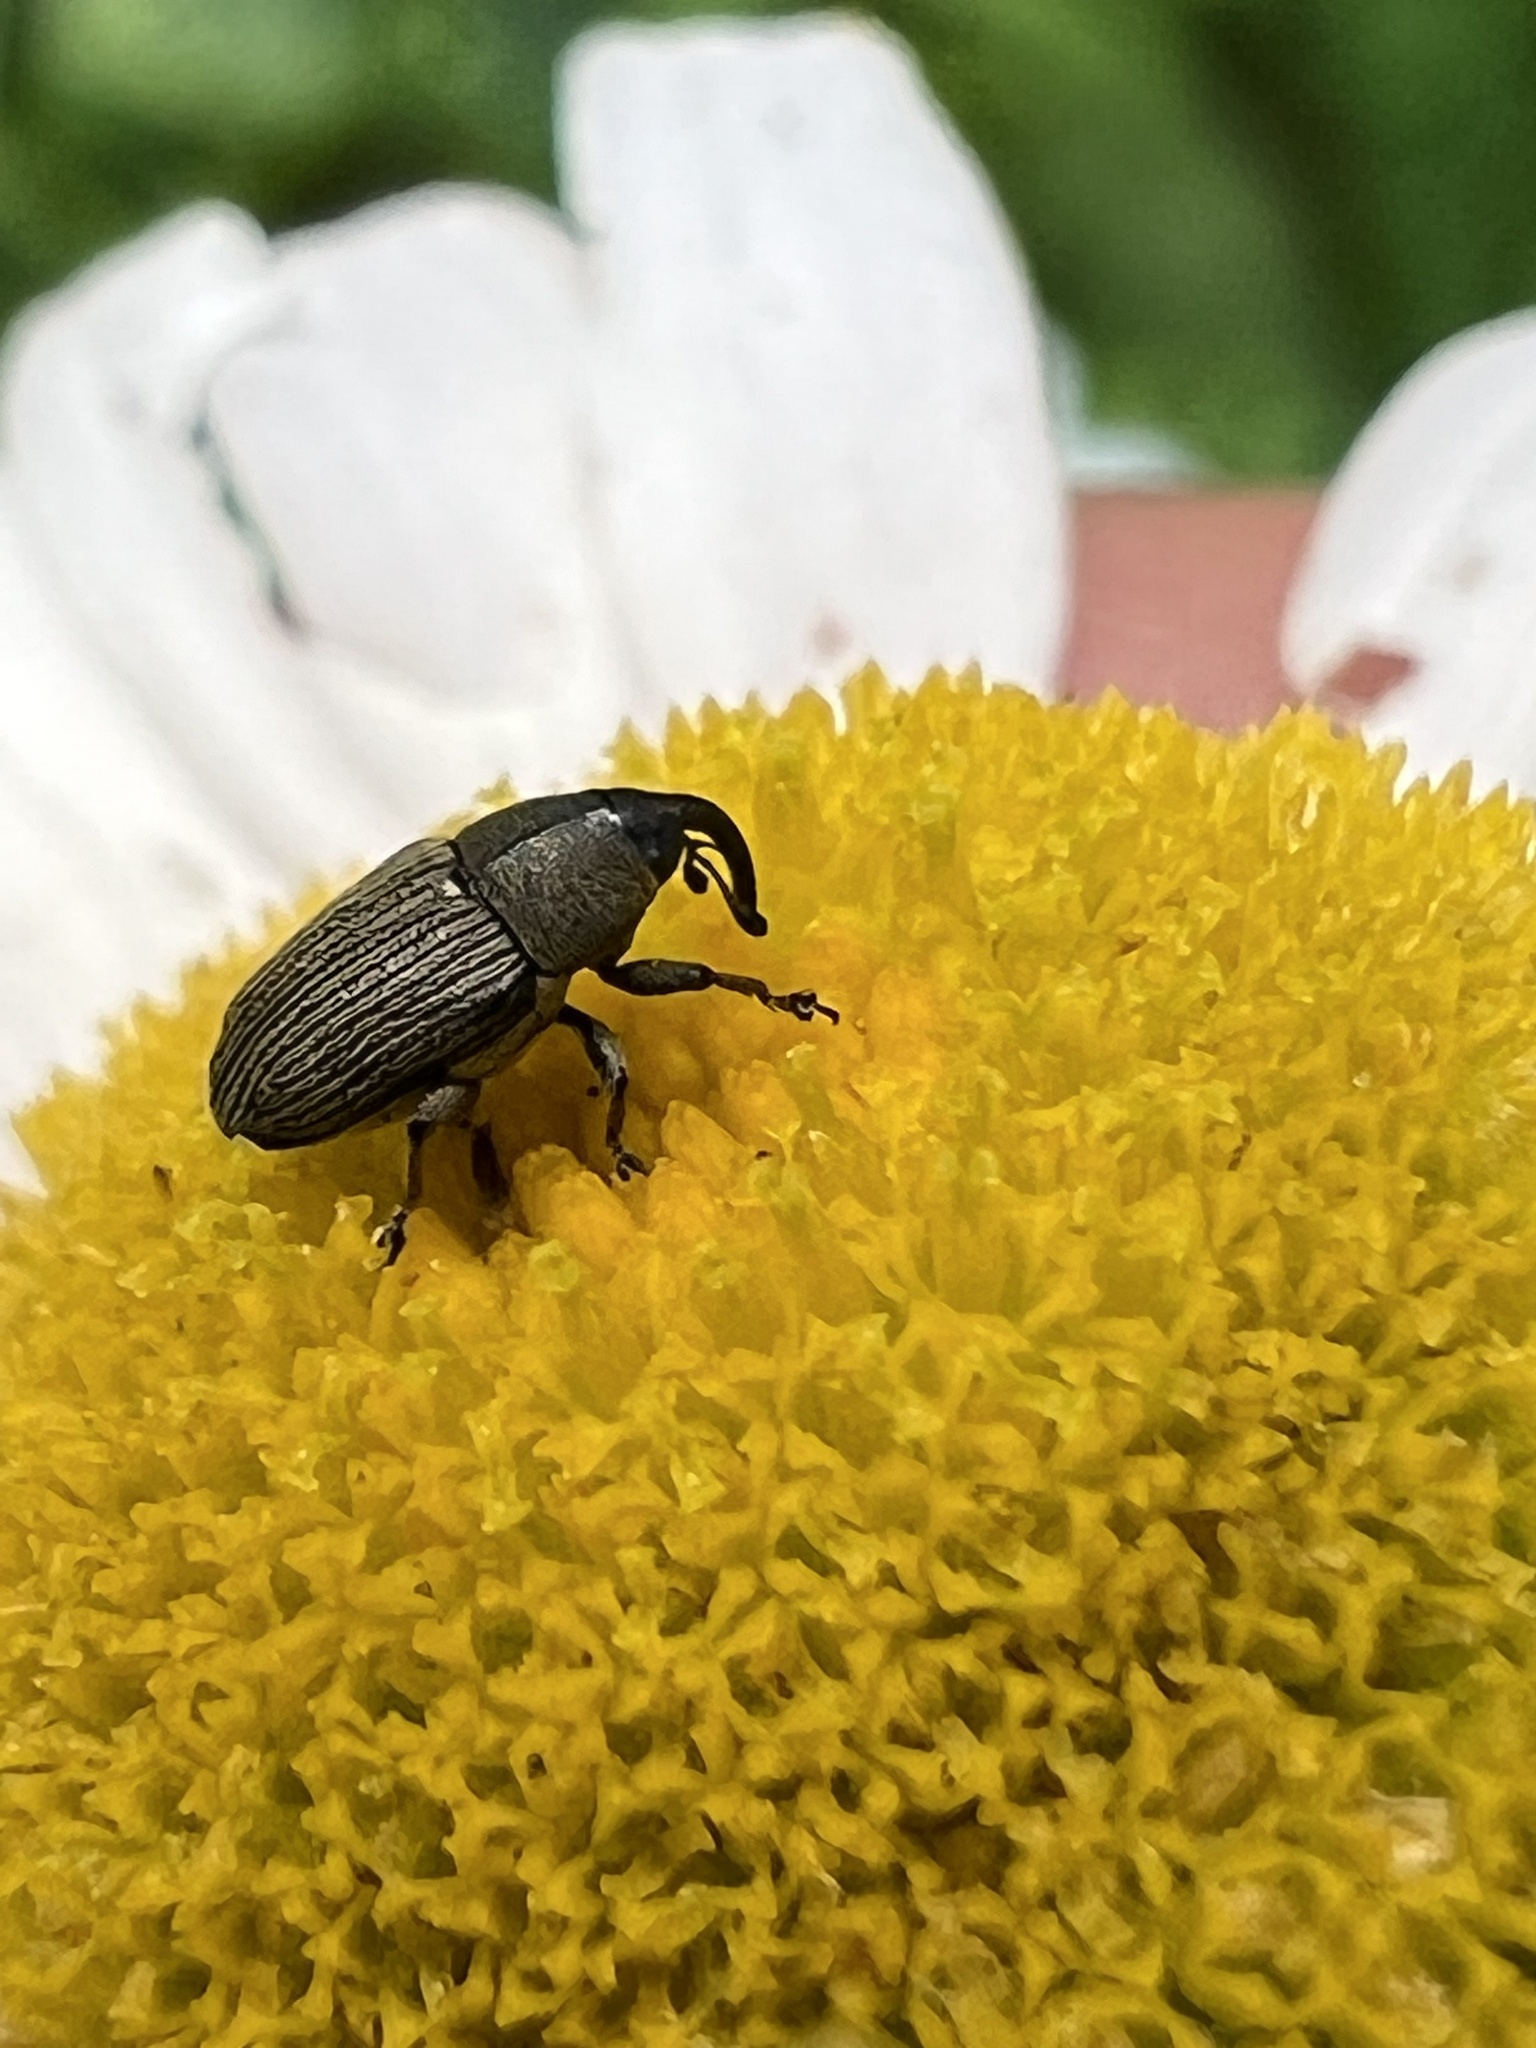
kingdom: Animalia
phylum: Arthropoda
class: Insecta
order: Coleoptera
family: Curculionidae
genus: Odontocorynus
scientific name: Odontocorynus salebrosus
